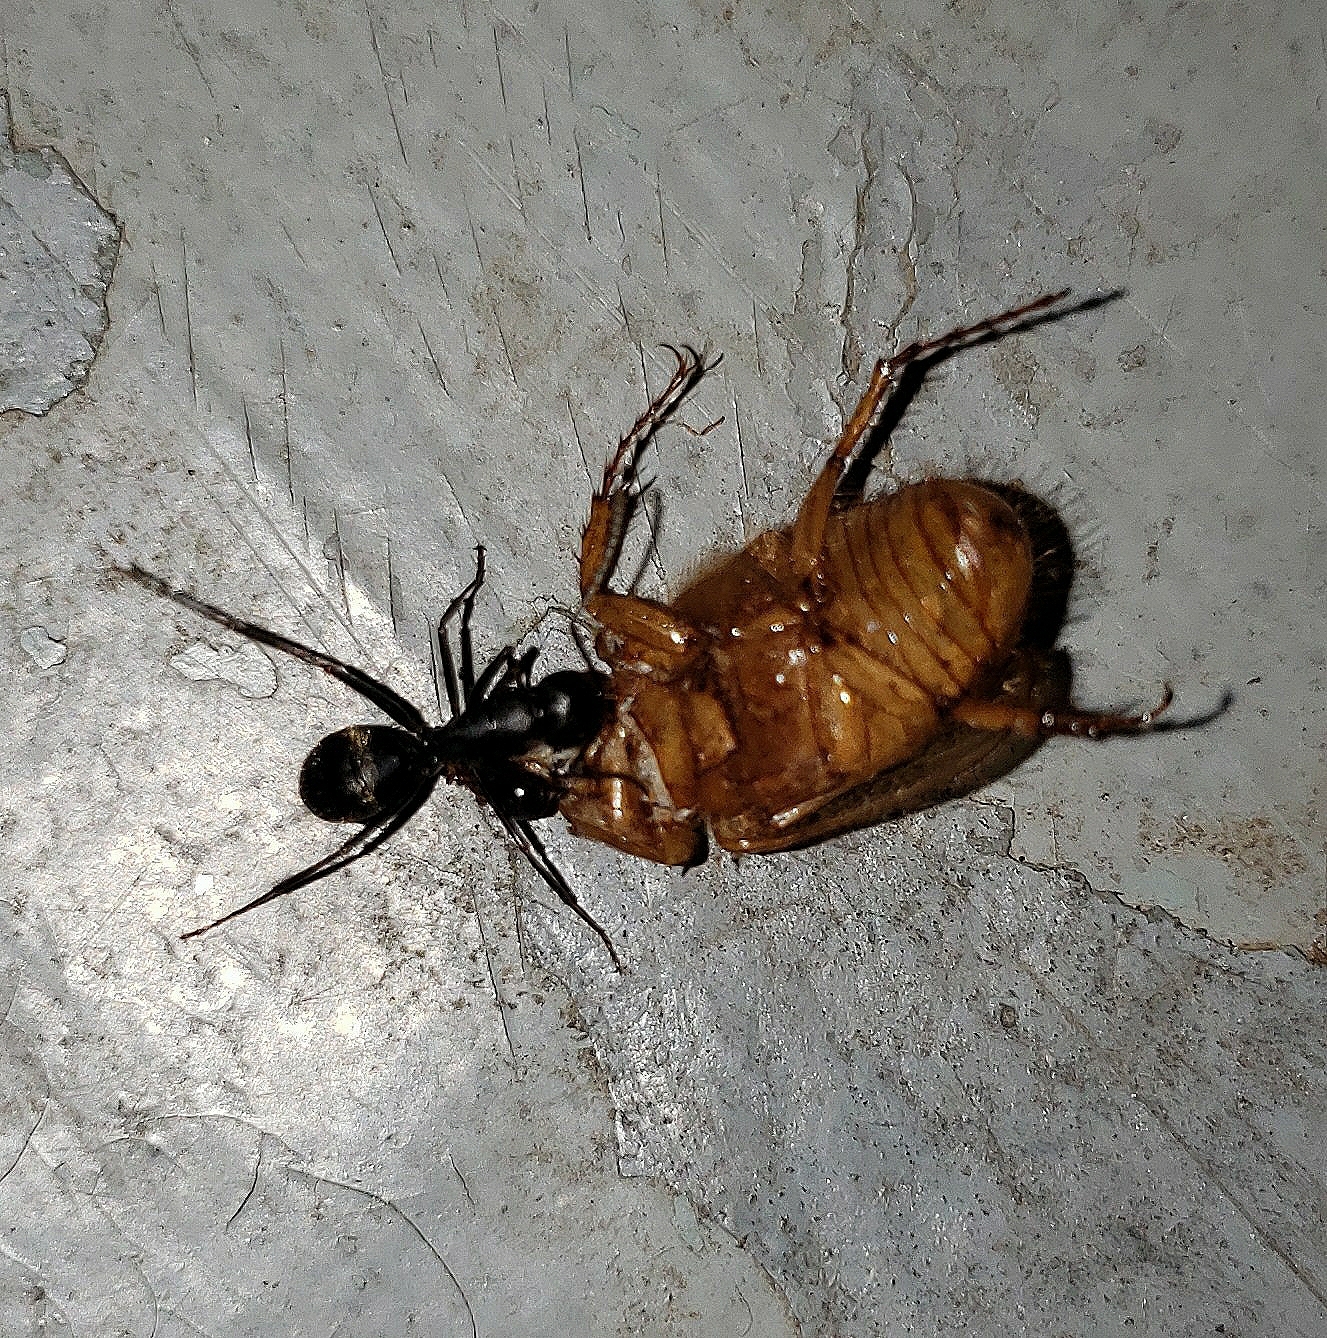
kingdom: Animalia
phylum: Arthropoda
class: Insecta
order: Hymenoptera
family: Formicidae
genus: Camponotus
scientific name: Camponotus pennsylvanicus
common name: Black carpenter ant
